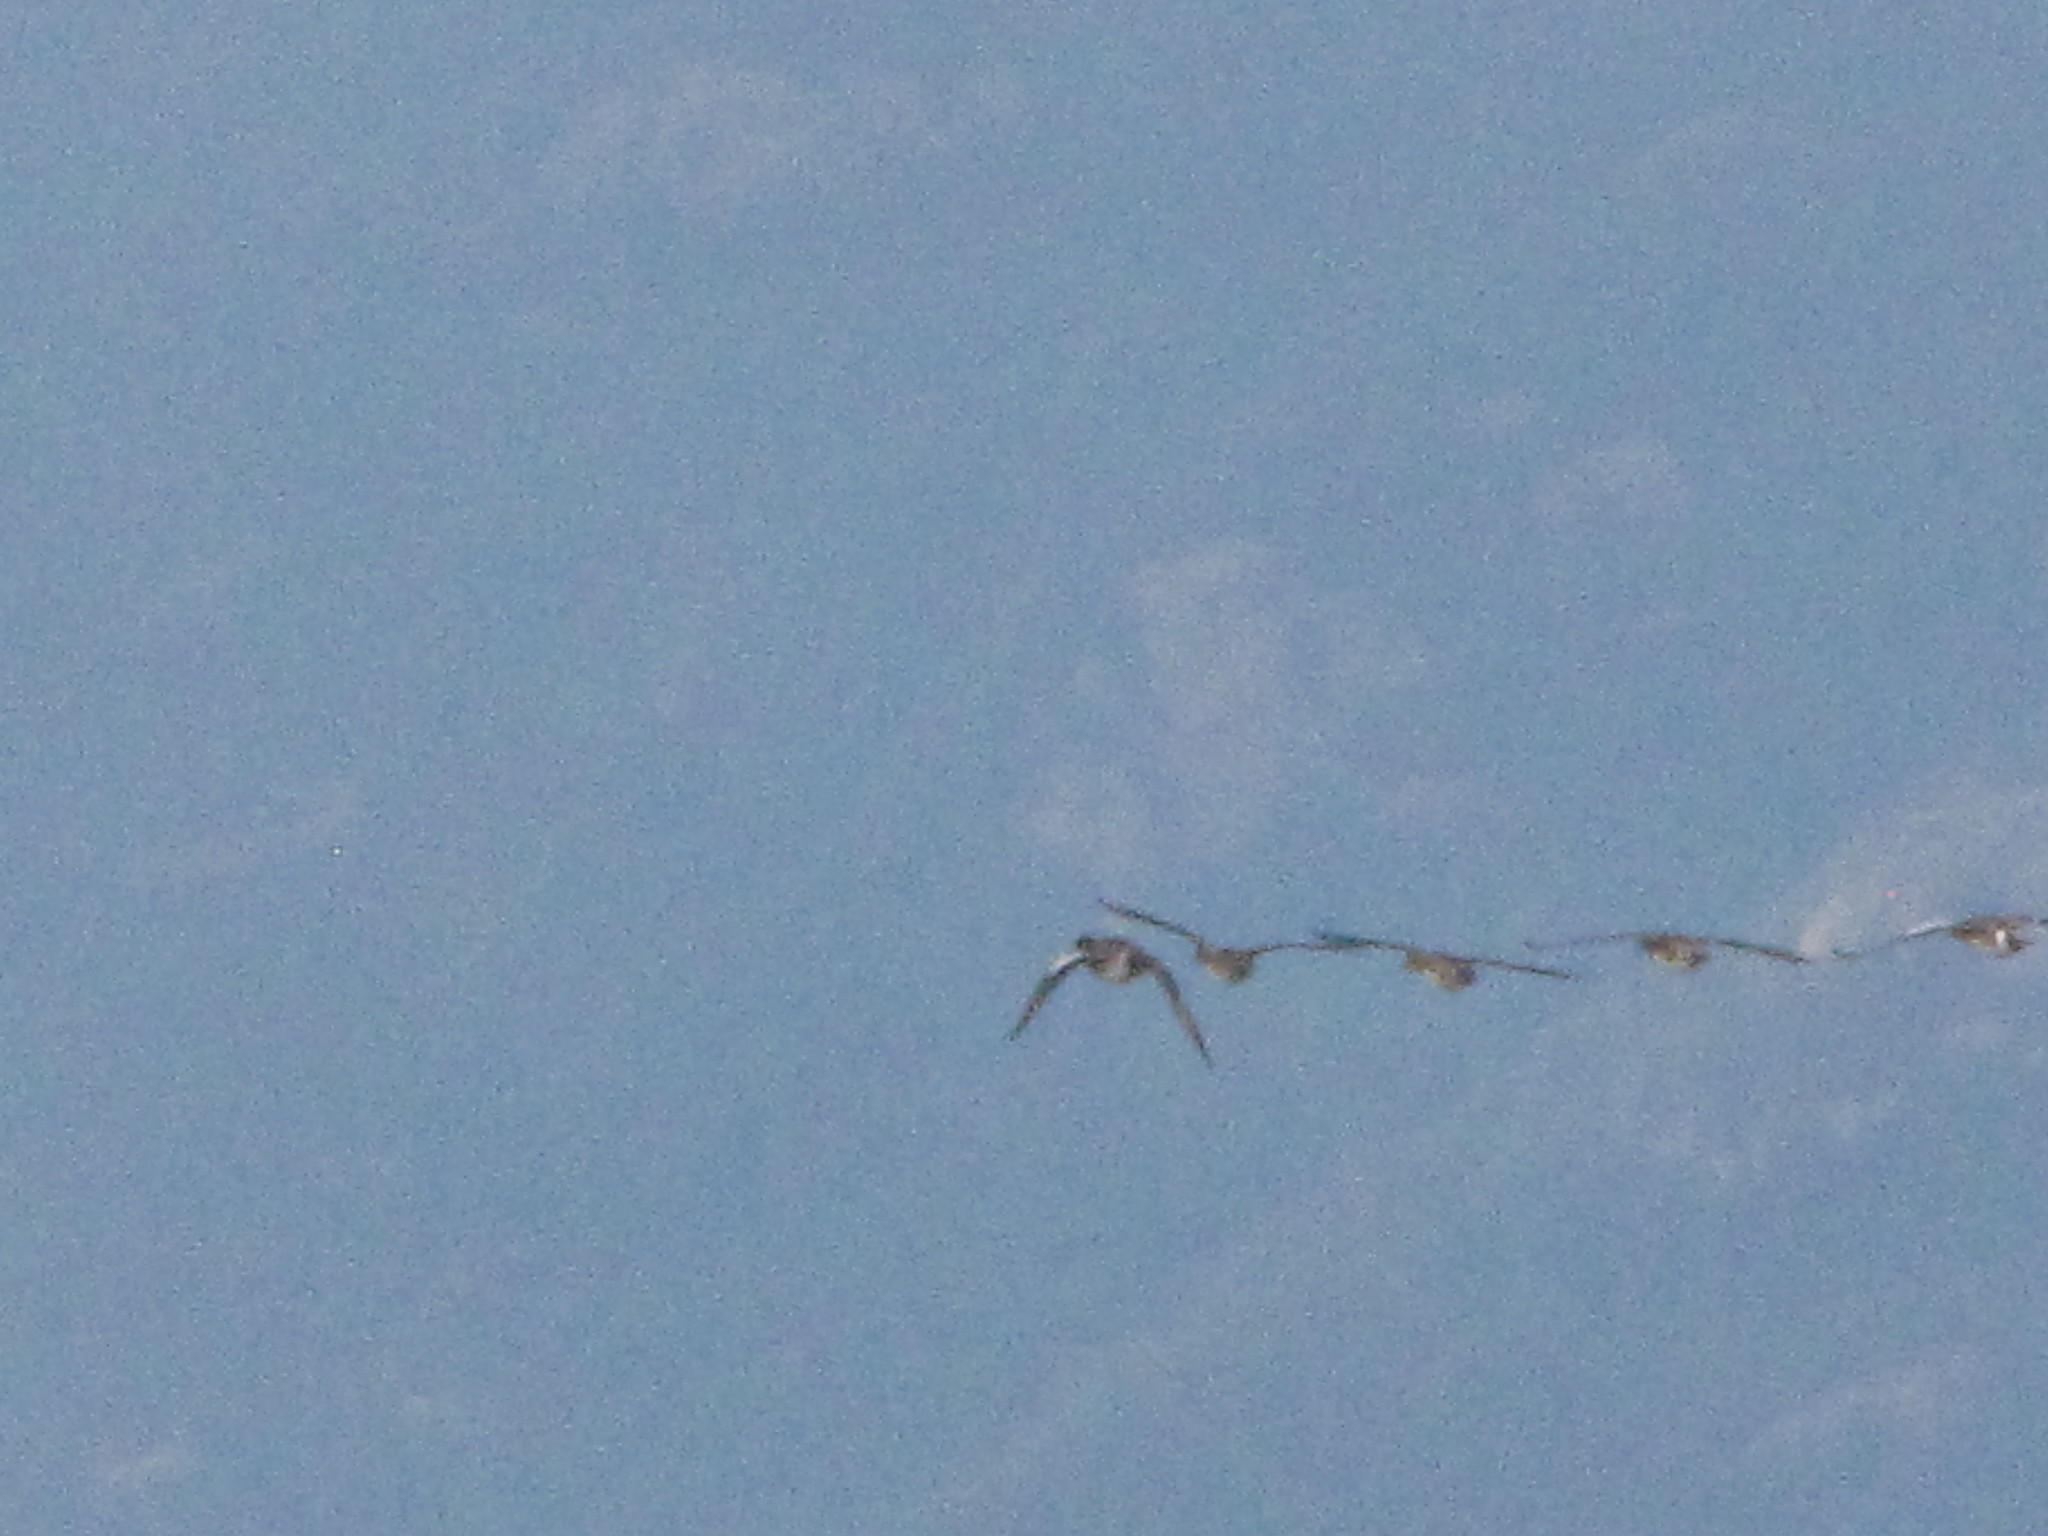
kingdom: Animalia
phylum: Chordata
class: Aves
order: Anseriformes
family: Anatidae
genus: Mareca
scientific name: Mareca americana
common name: American wigeon
